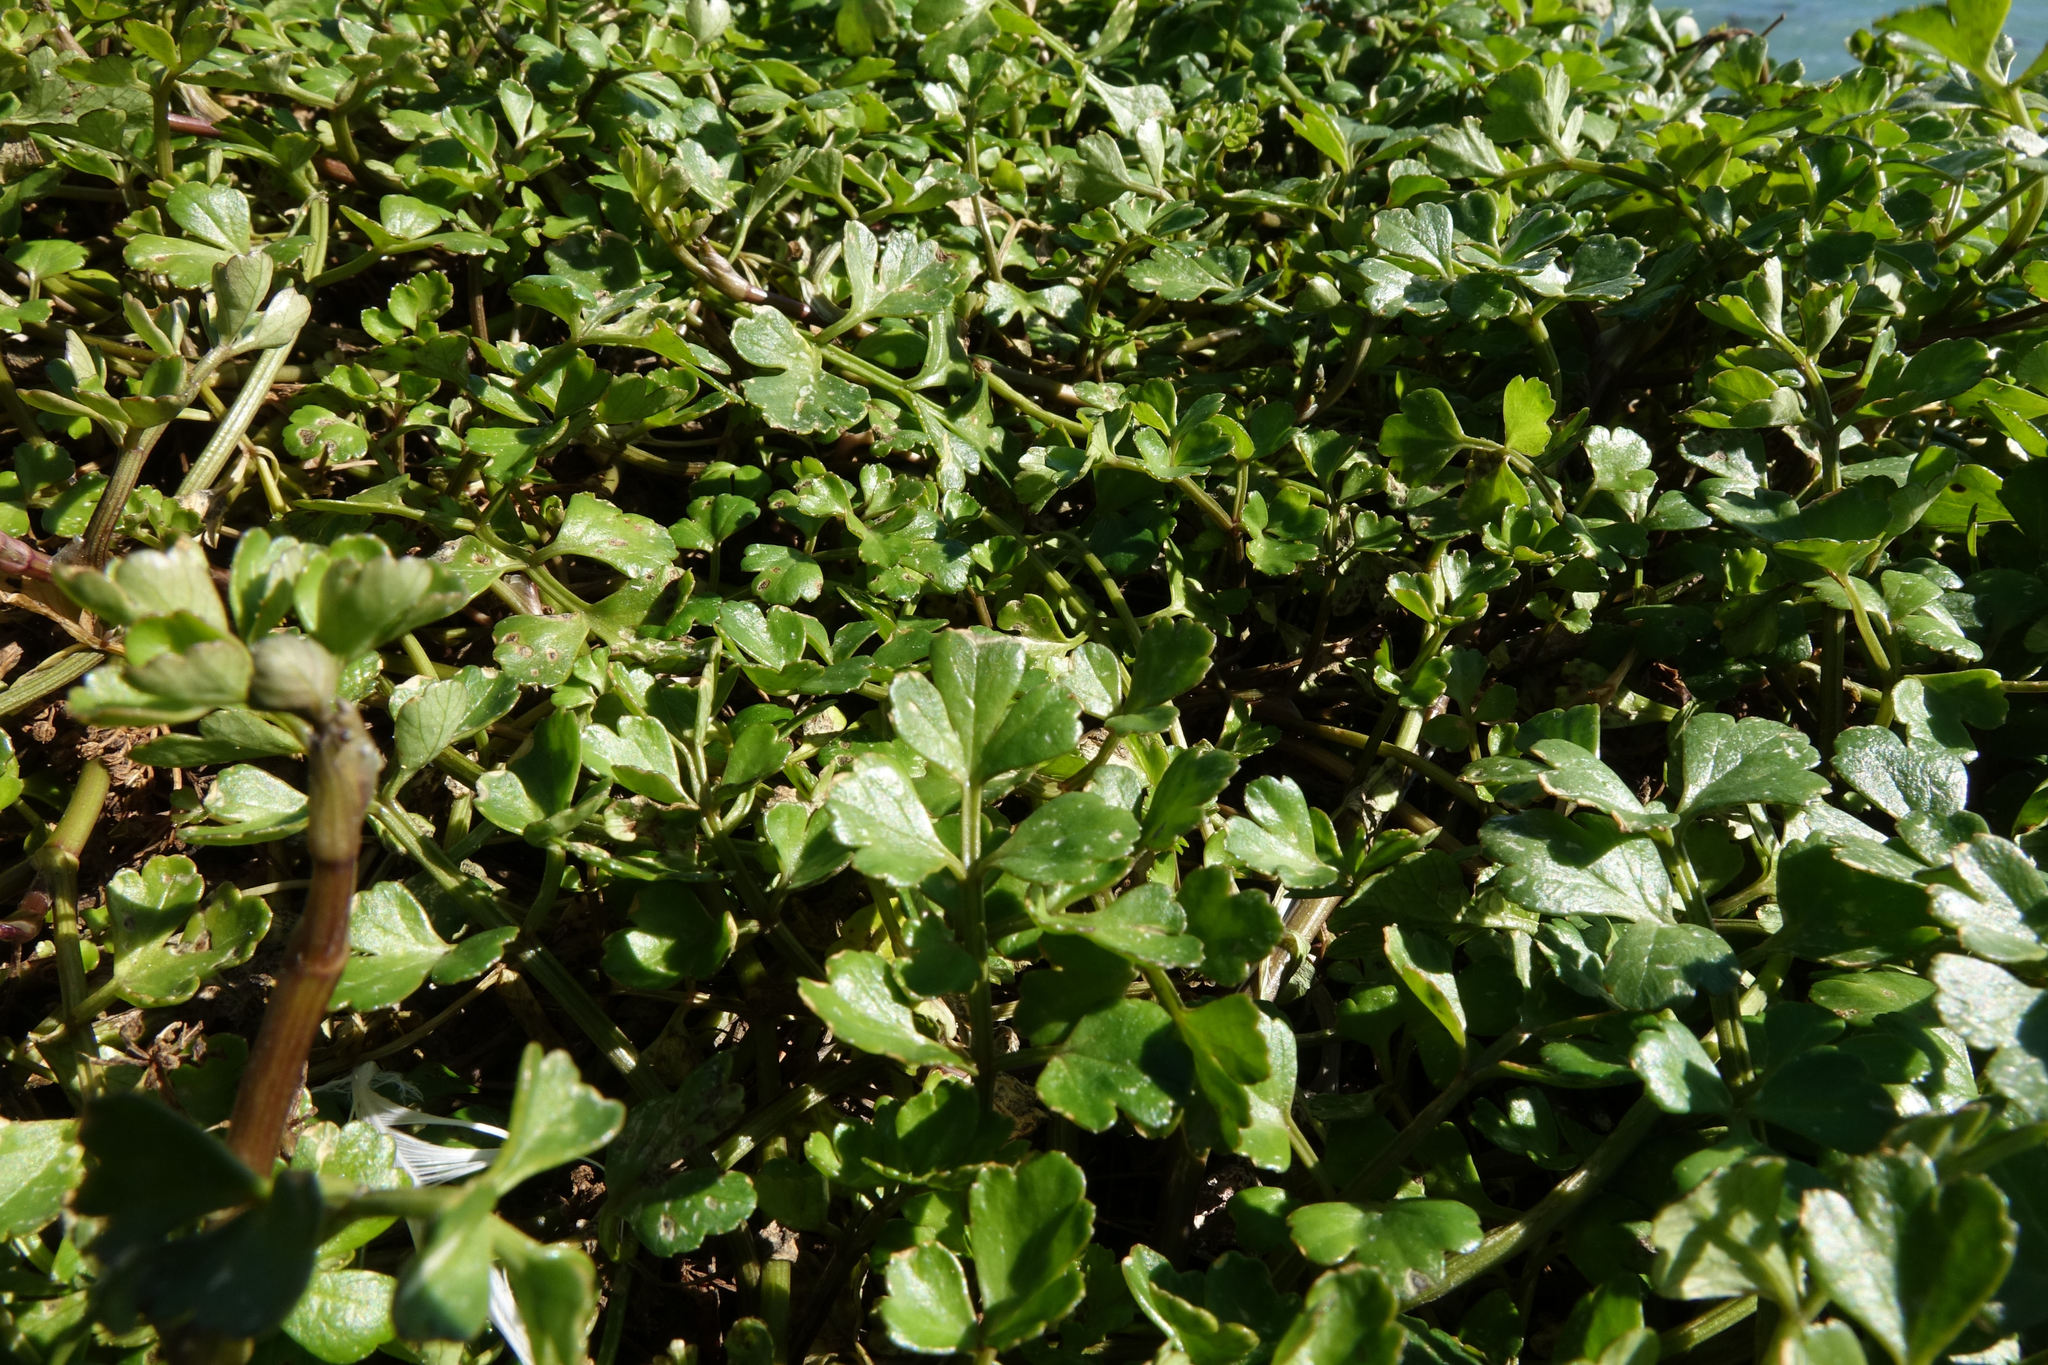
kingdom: Plantae
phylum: Tracheophyta
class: Magnoliopsida
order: Apiales
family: Apiaceae
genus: Apium
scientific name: Apium prostratum
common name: Prostrate marshwort
